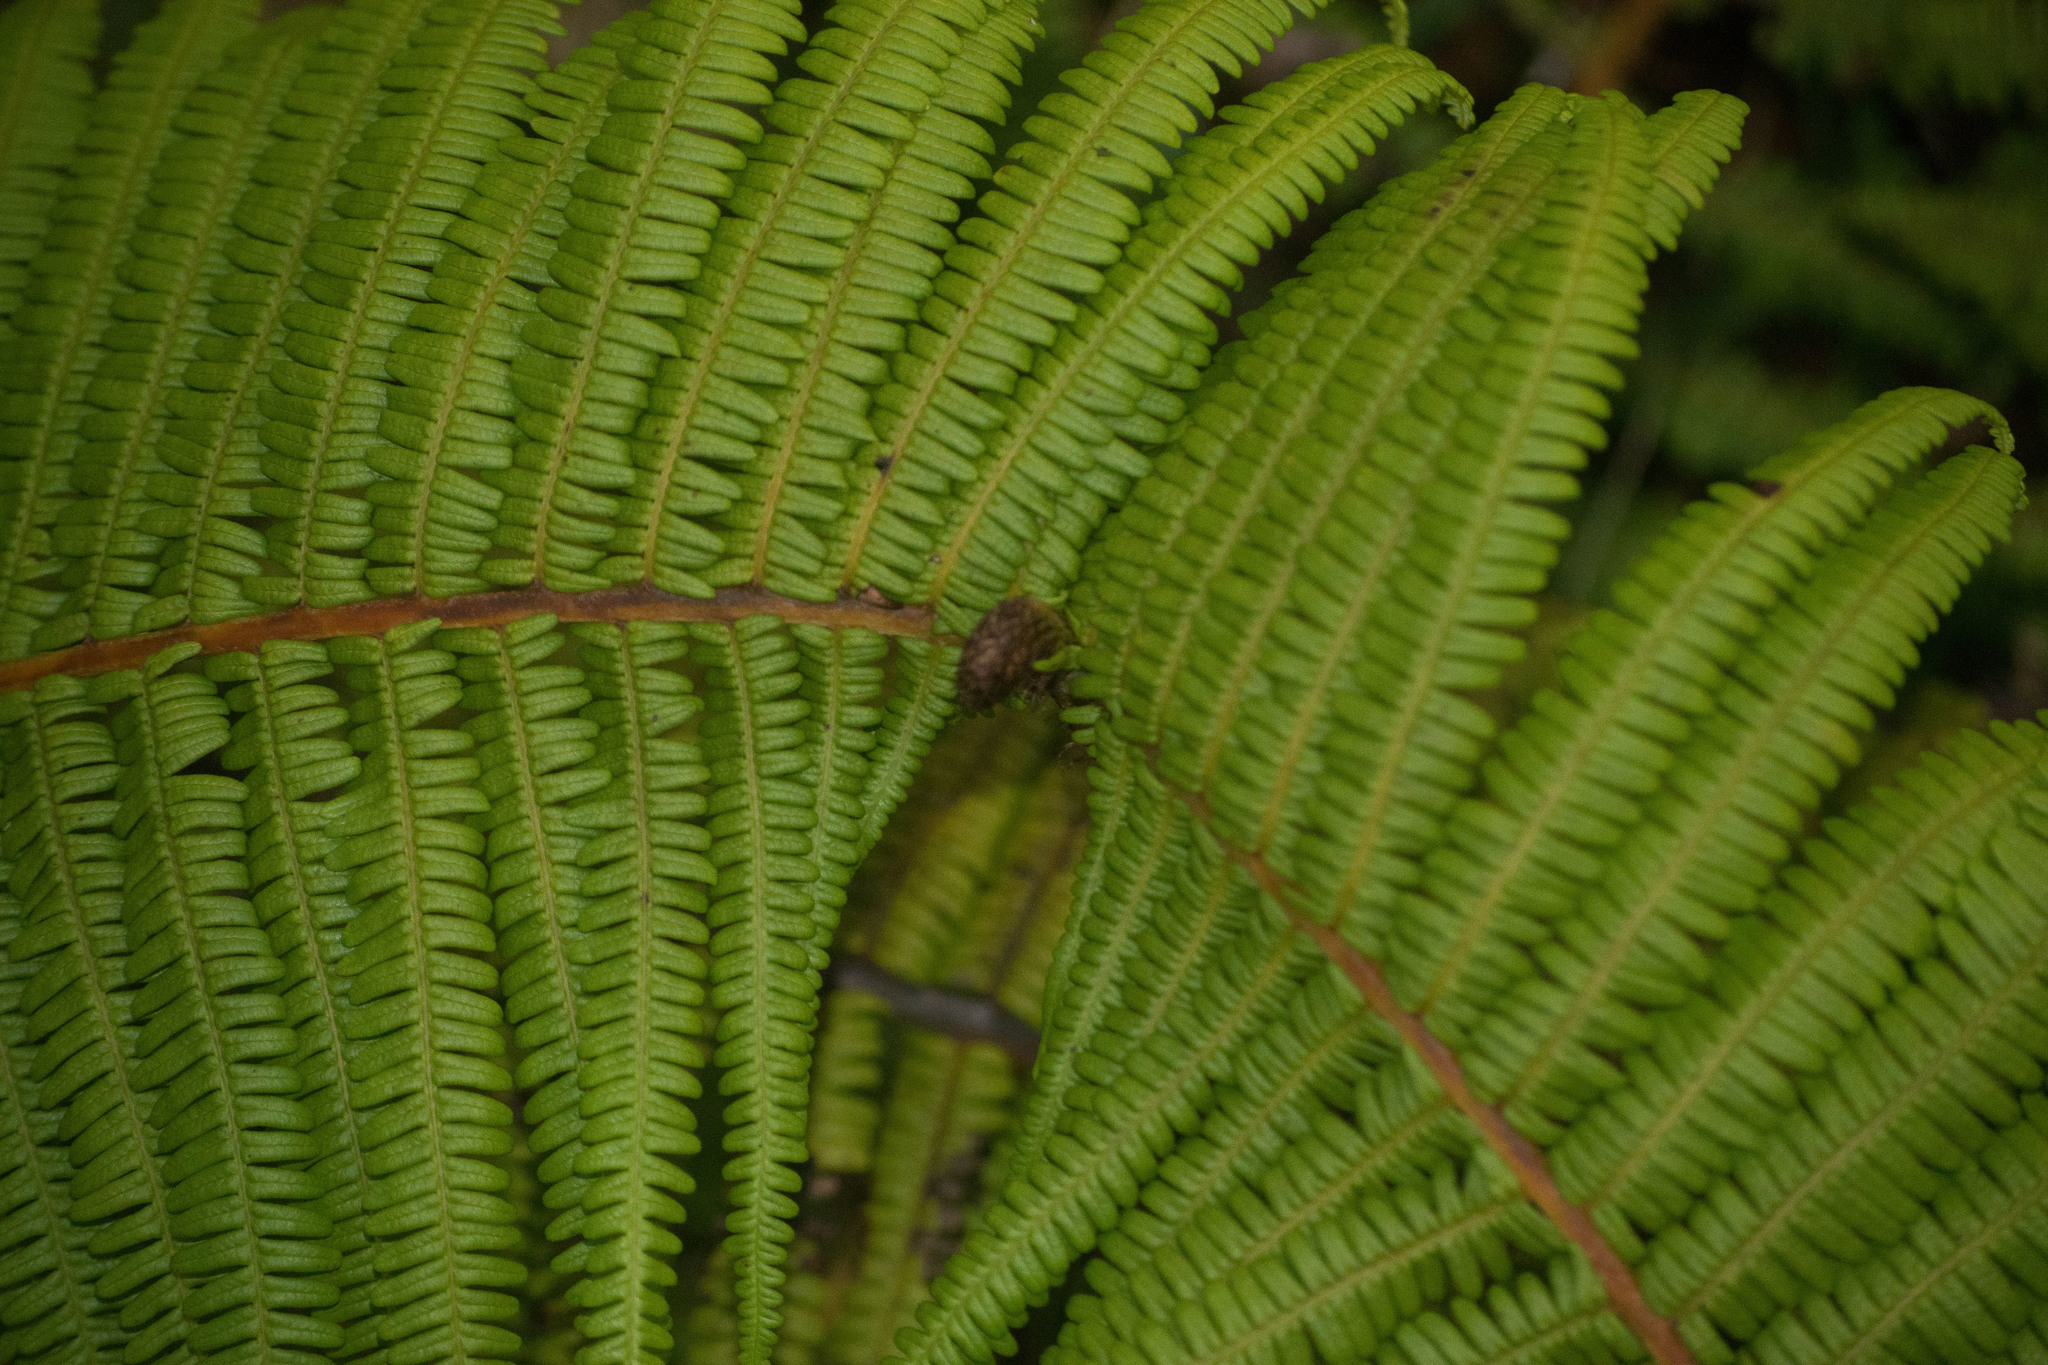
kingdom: Plantae
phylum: Tracheophyta
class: Polypodiopsida
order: Gleicheniales
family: Gleicheniaceae
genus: Diplopterygium
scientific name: Diplopterygium pinnatum
